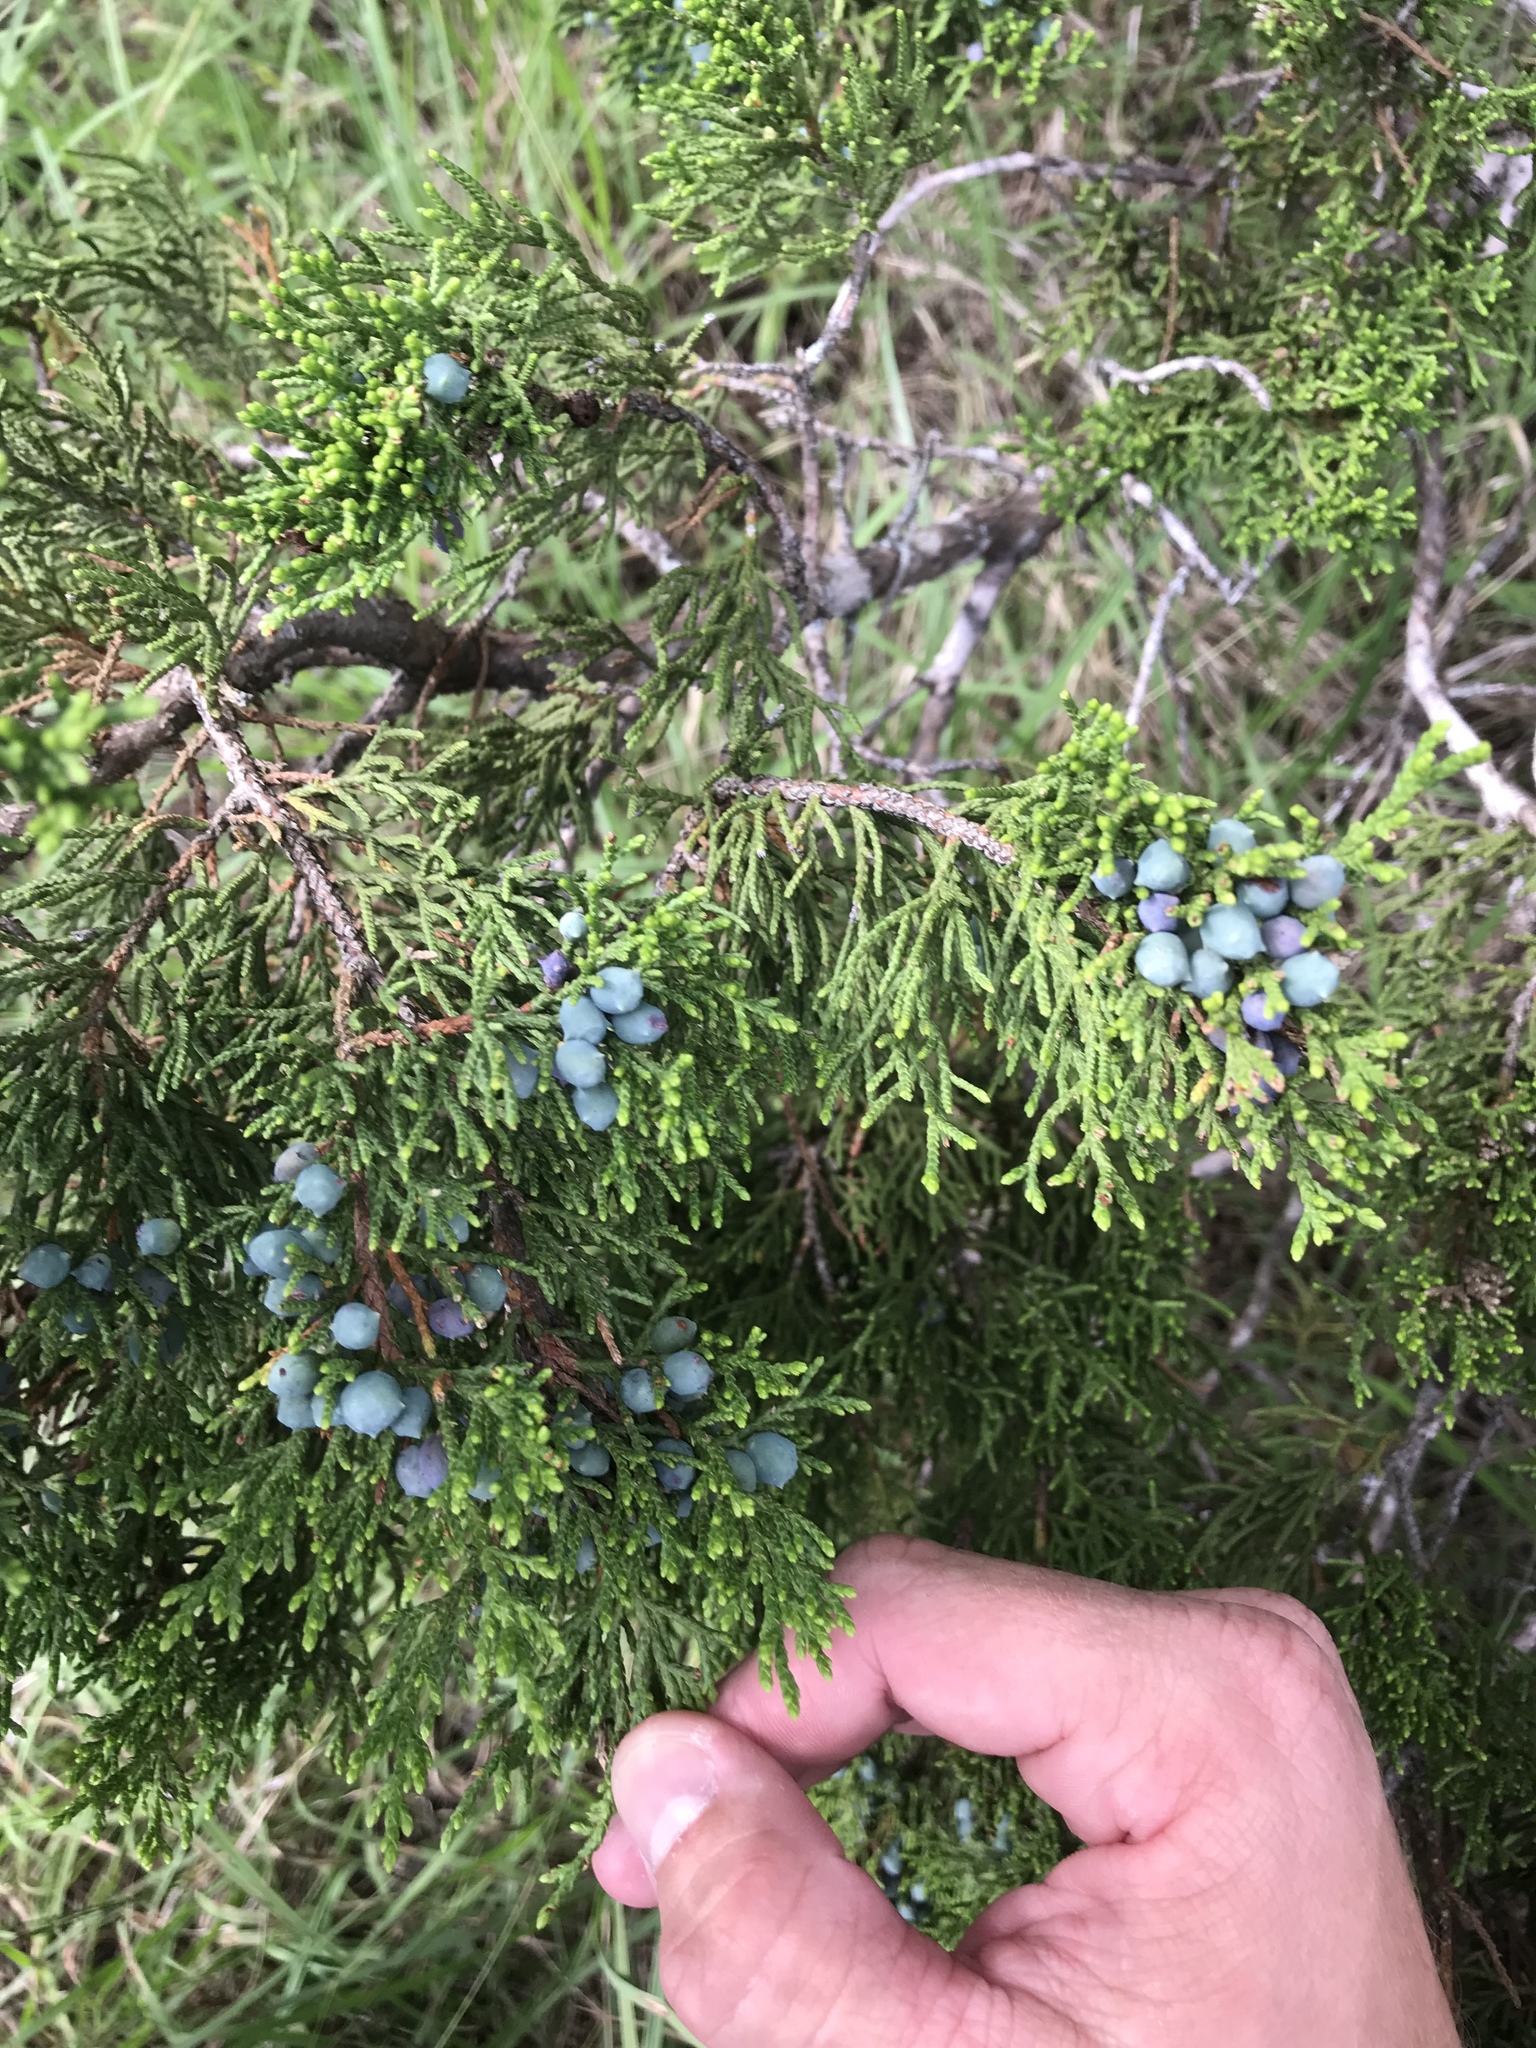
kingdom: Plantae
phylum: Tracheophyta
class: Pinopsida
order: Pinales
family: Cupressaceae
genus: Juniperus
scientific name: Juniperus ashei
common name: Mexican juniper
